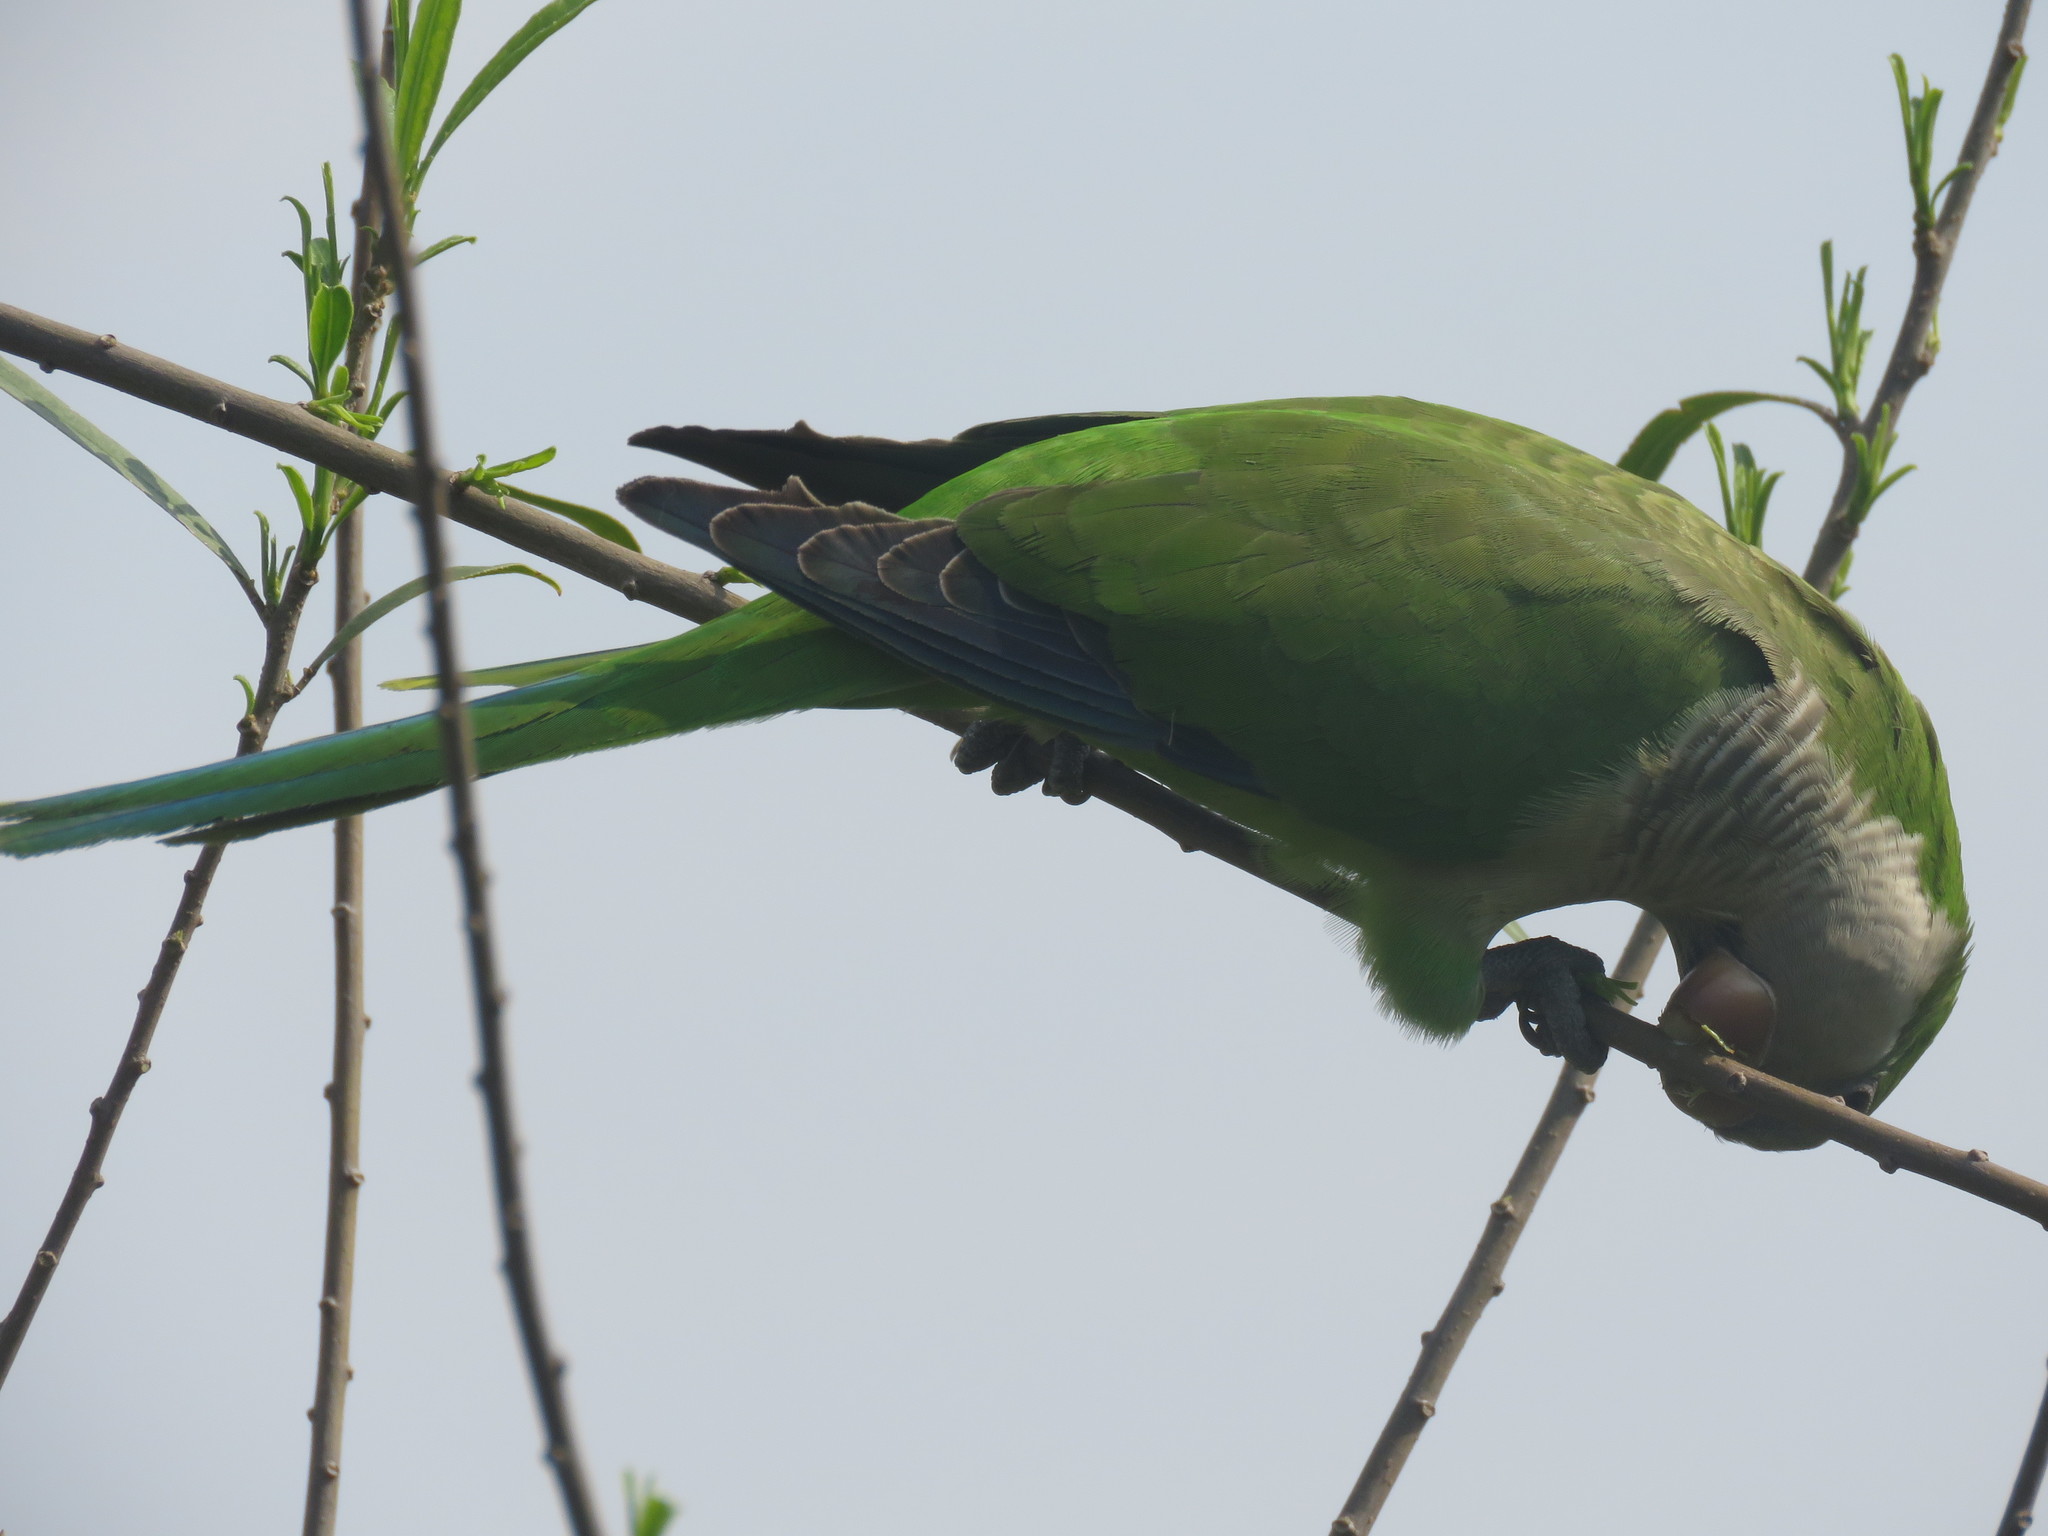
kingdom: Animalia
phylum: Chordata
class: Aves
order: Psittaciformes
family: Psittacidae
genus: Myiopsitta
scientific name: Myiopsitta monachus
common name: Monk parakeet
